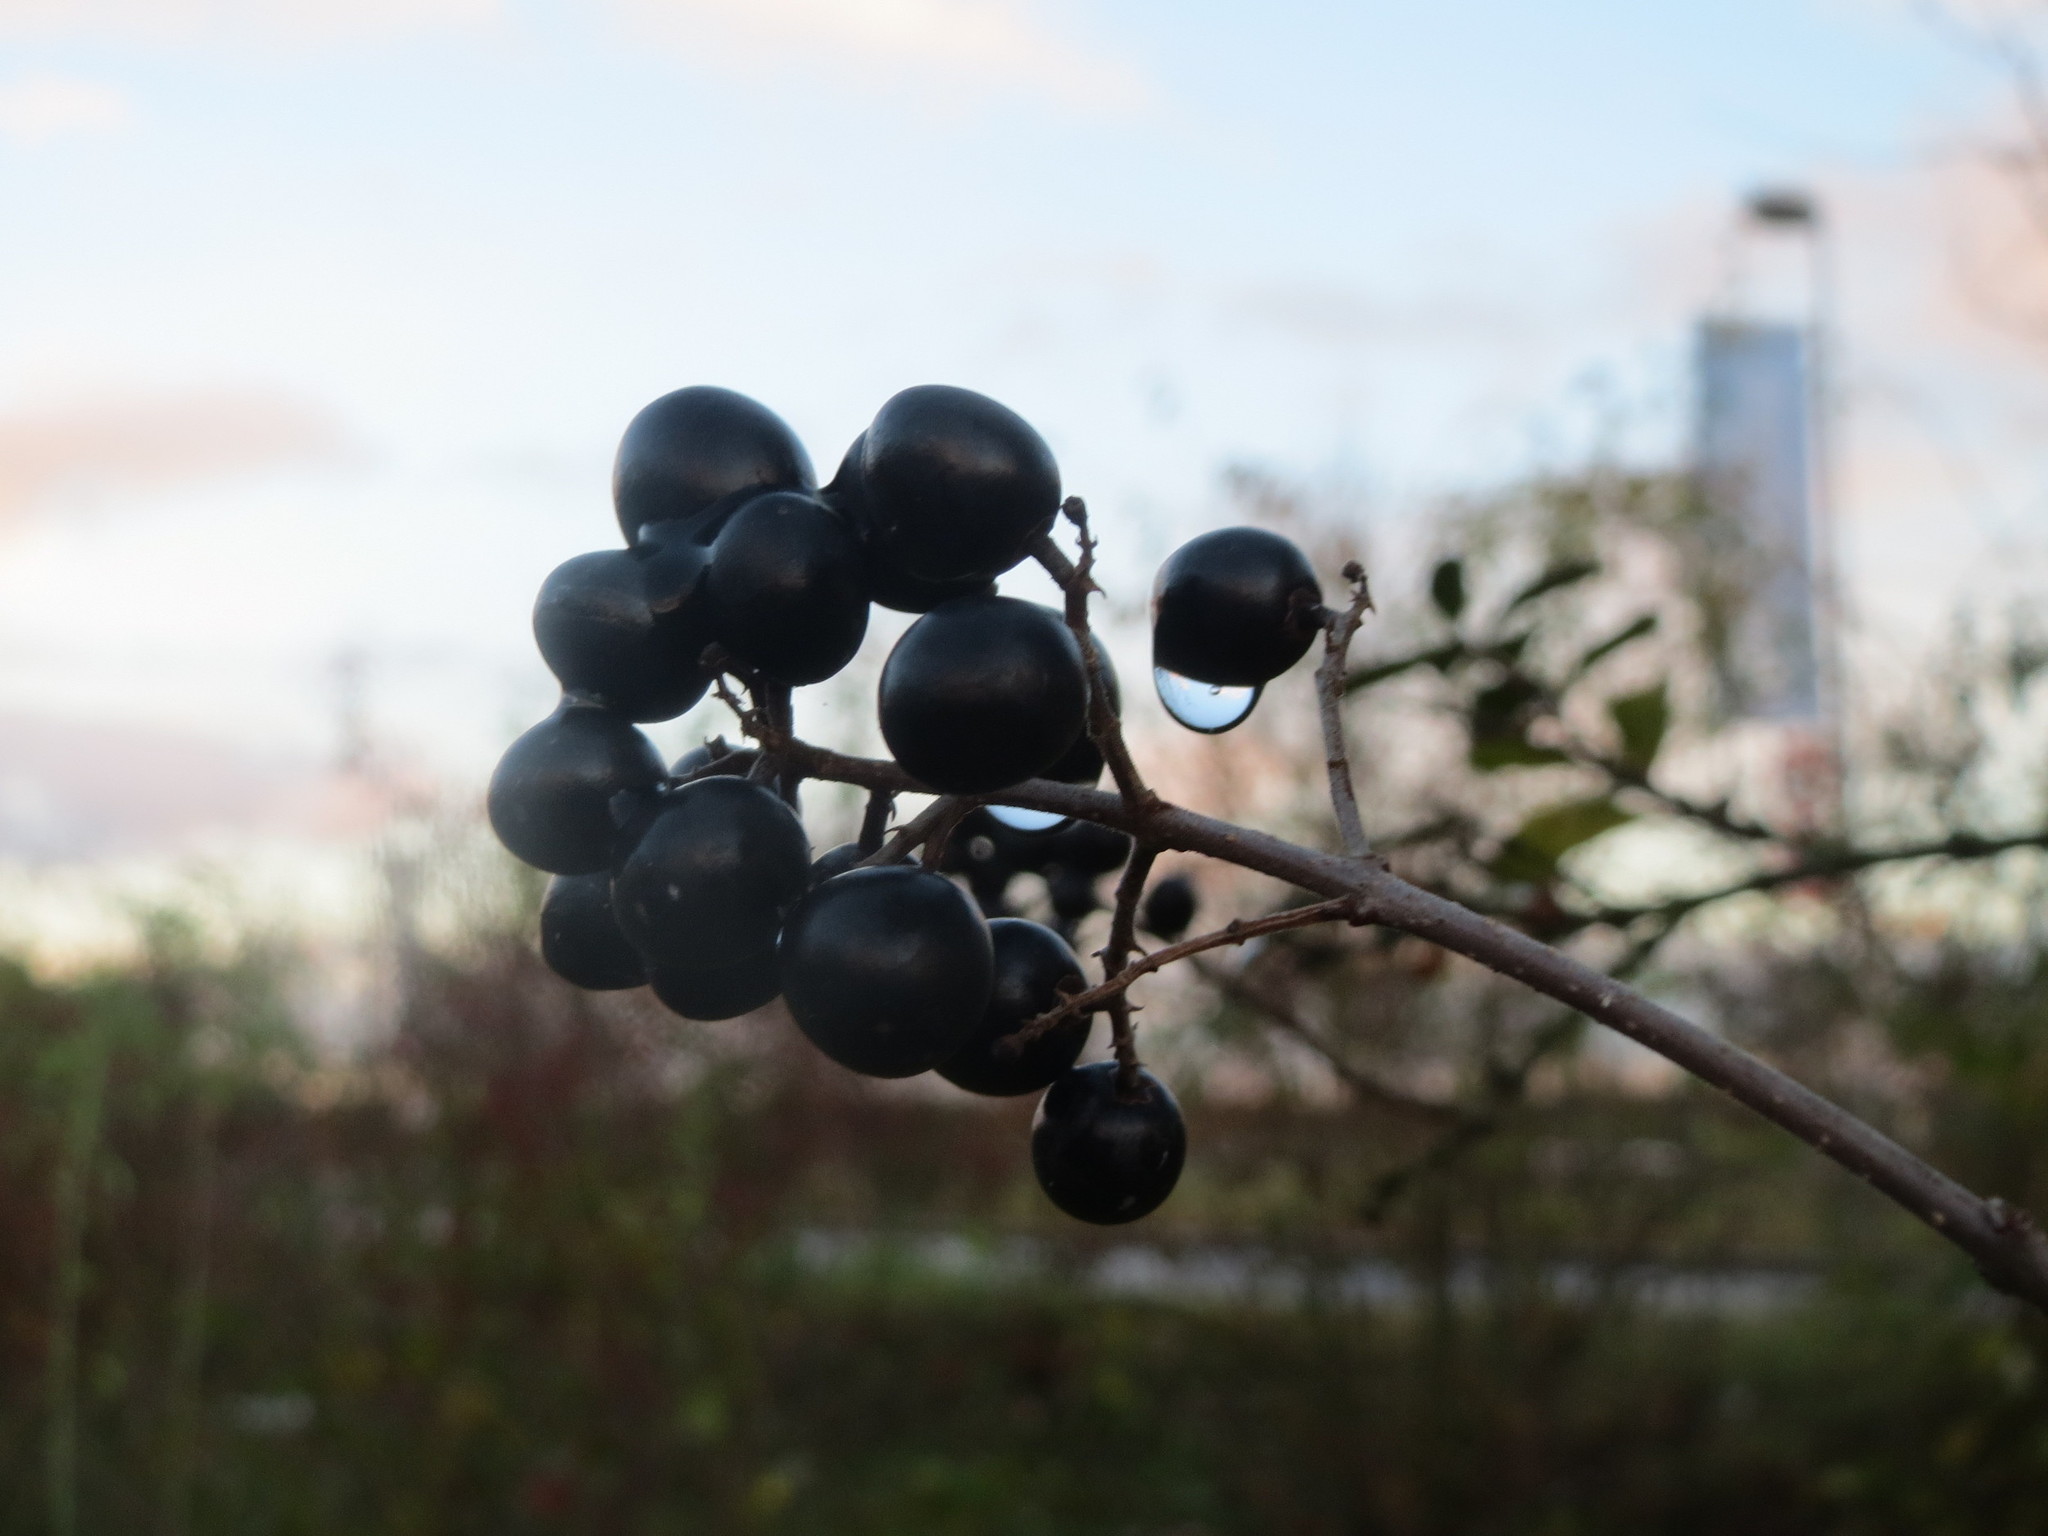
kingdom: Plantae
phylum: Tracheophyta
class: Magnoliopsida
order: Lamiales
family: Oleaceae
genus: Ligustrum
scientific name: Ligustrum vulgare
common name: Wild privet
